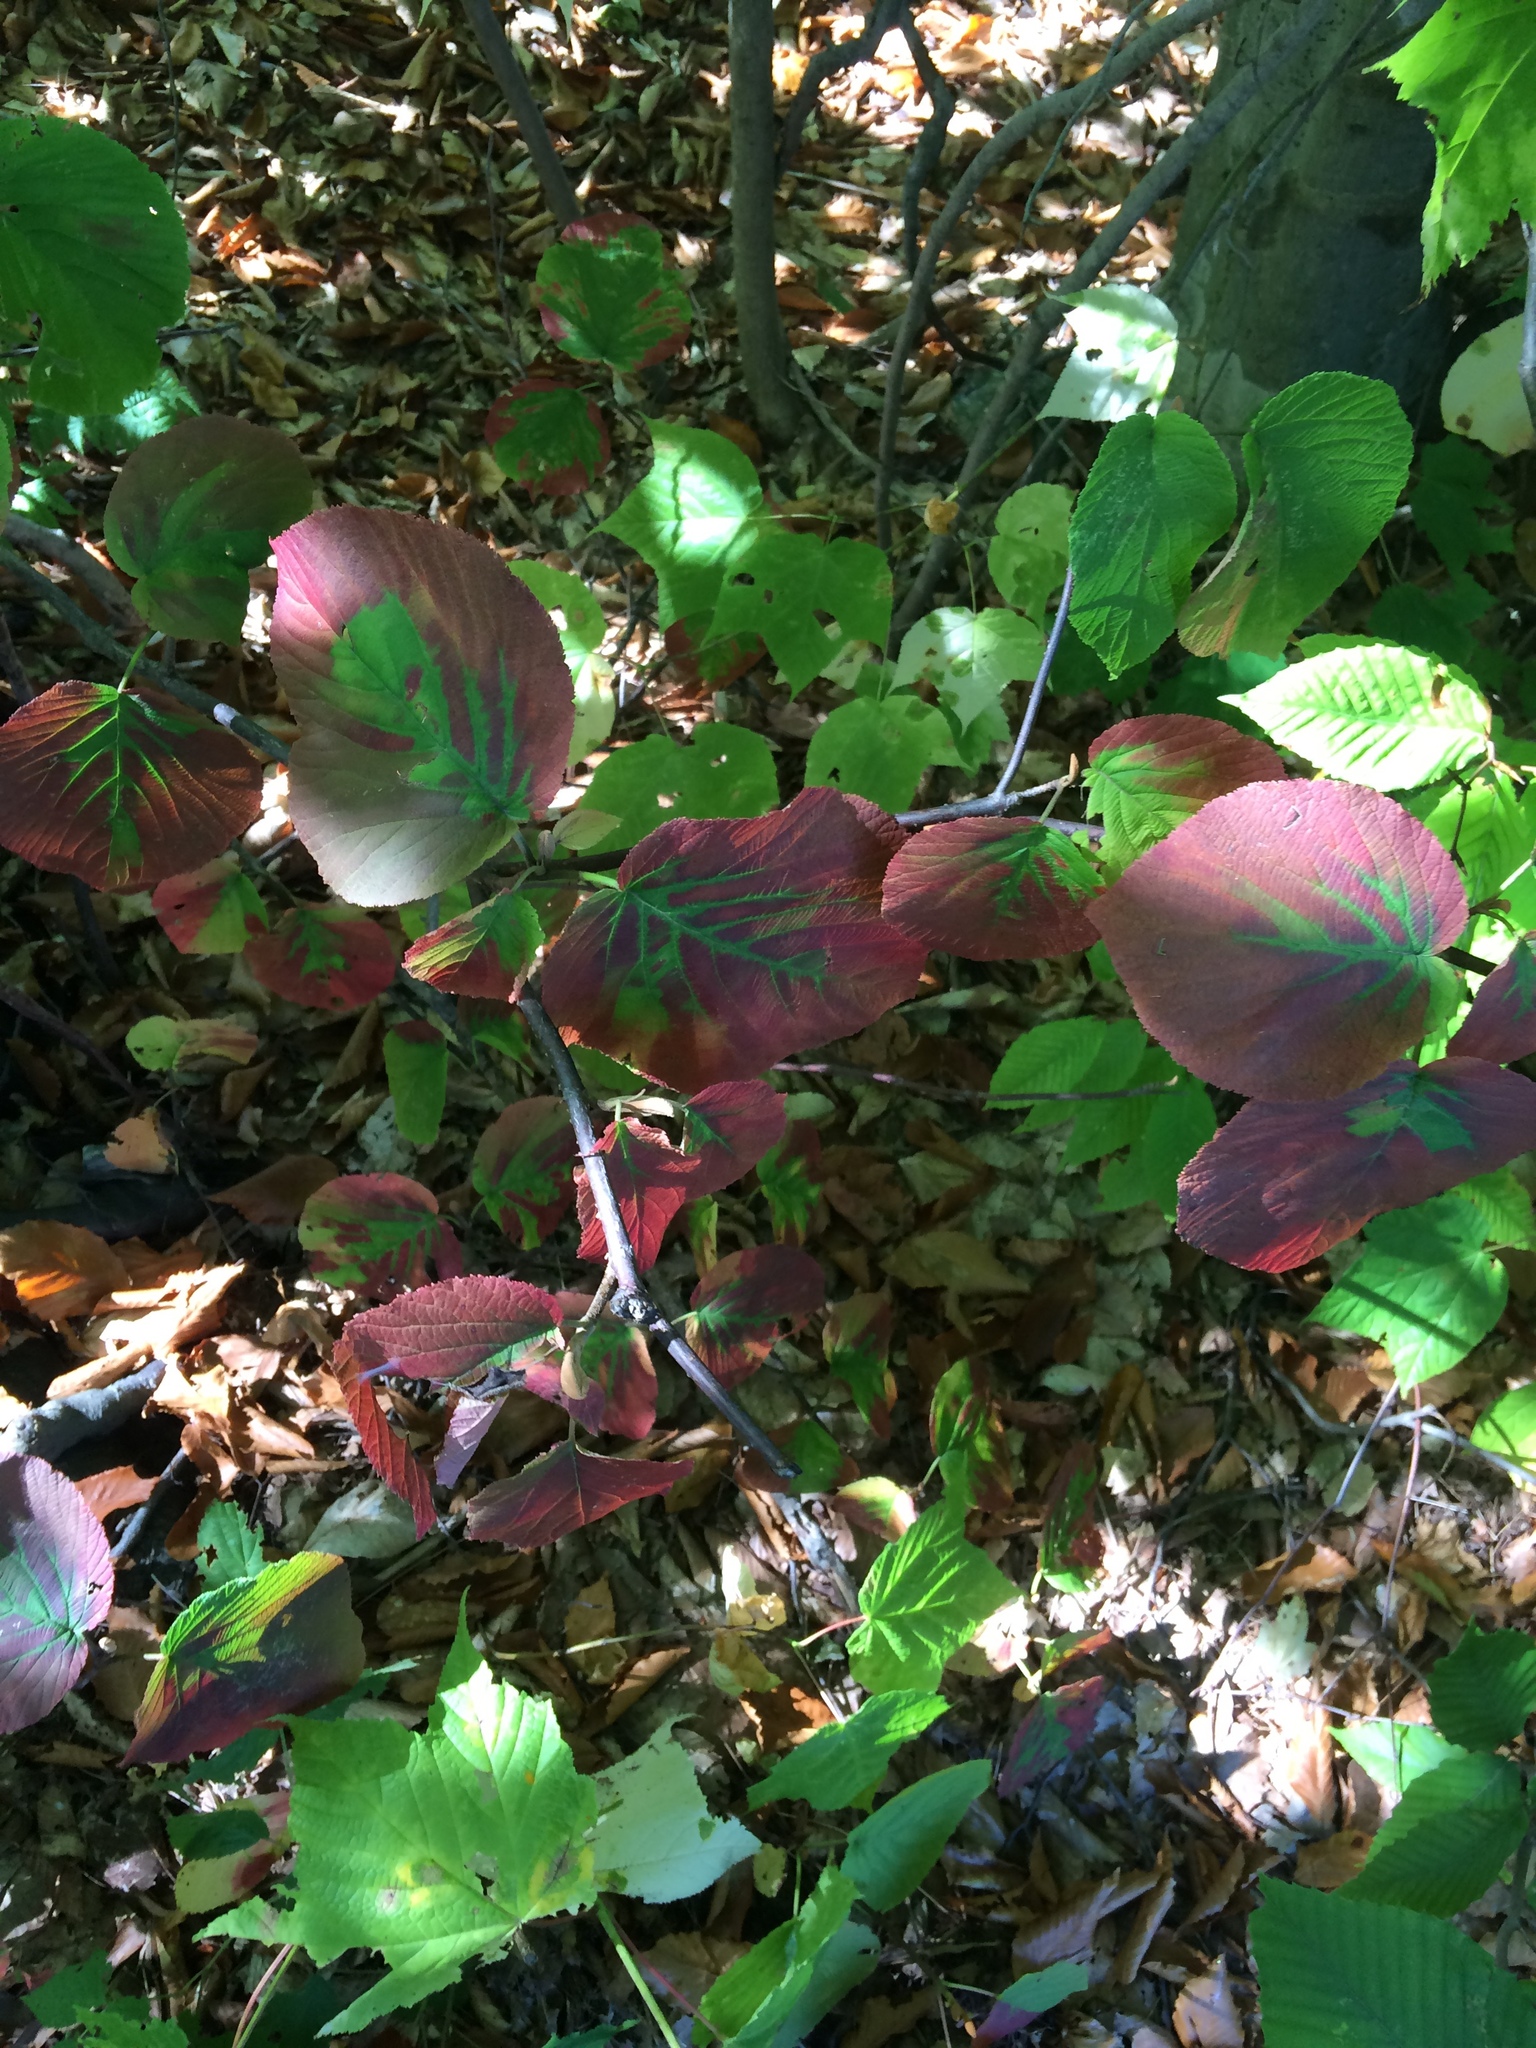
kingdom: Plantae
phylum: Tracheophyta
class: Magnoliopsida
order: Dipsacales
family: Viburnaceae
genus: Viburnum
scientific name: Viburnum lantanoides
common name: Hobblebush
